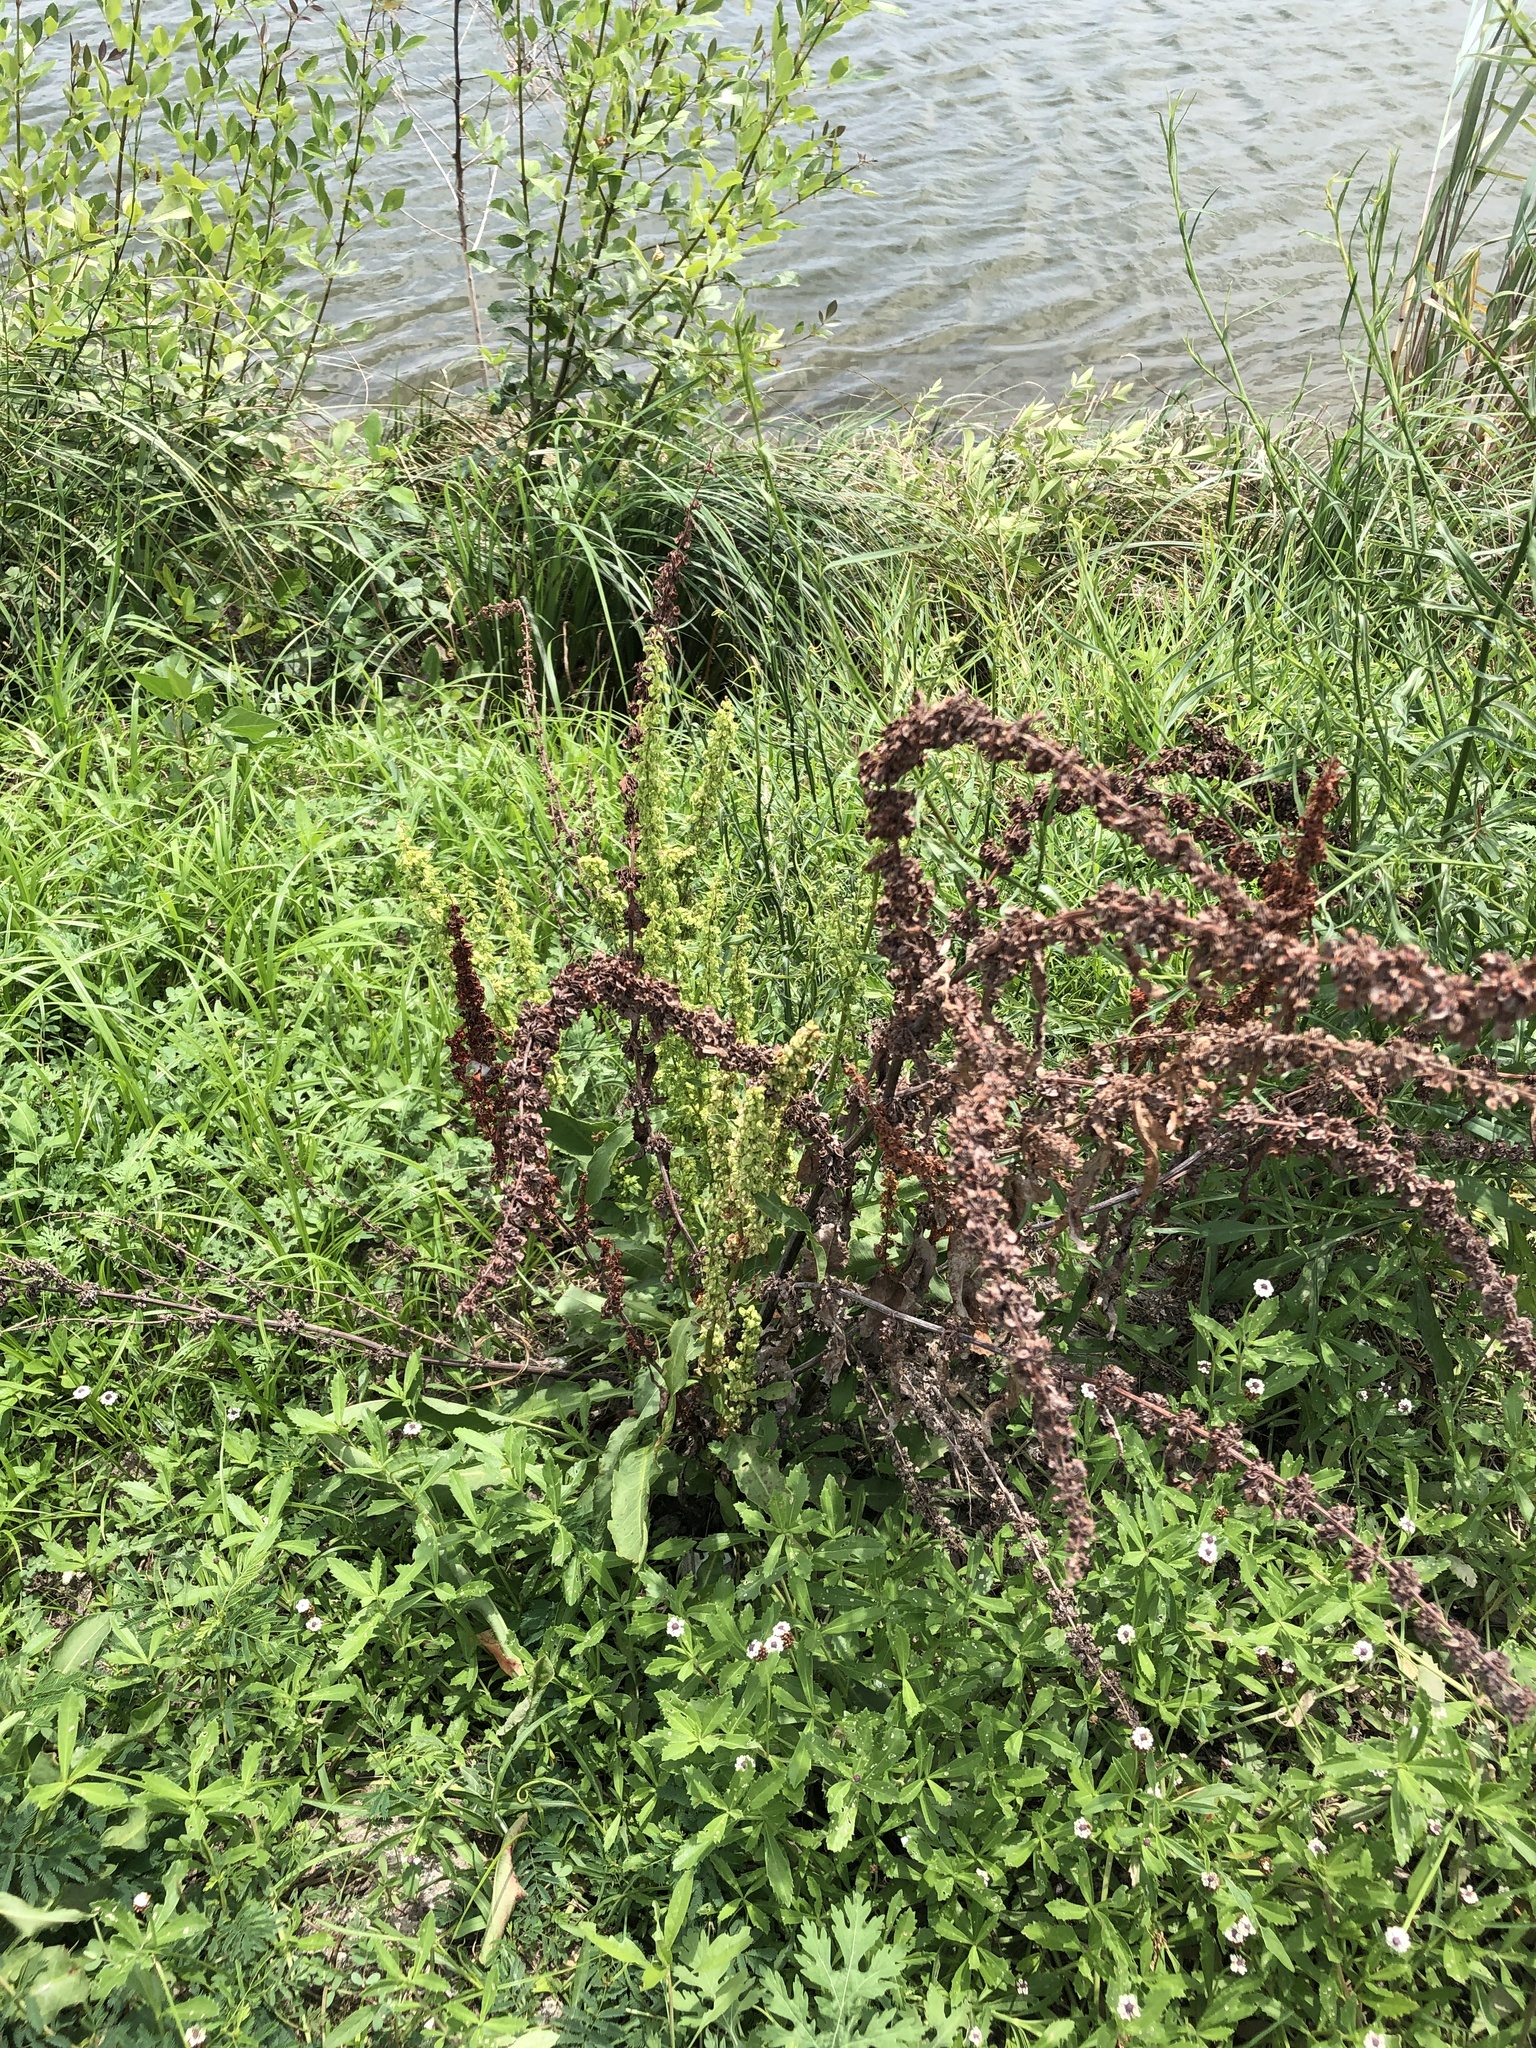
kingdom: Plantae
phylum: Tracheophyta
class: Magnoliopsida
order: Caryophyllales
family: Polygonaceae
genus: Rumex
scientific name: Rumex crispus
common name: Curled dock
